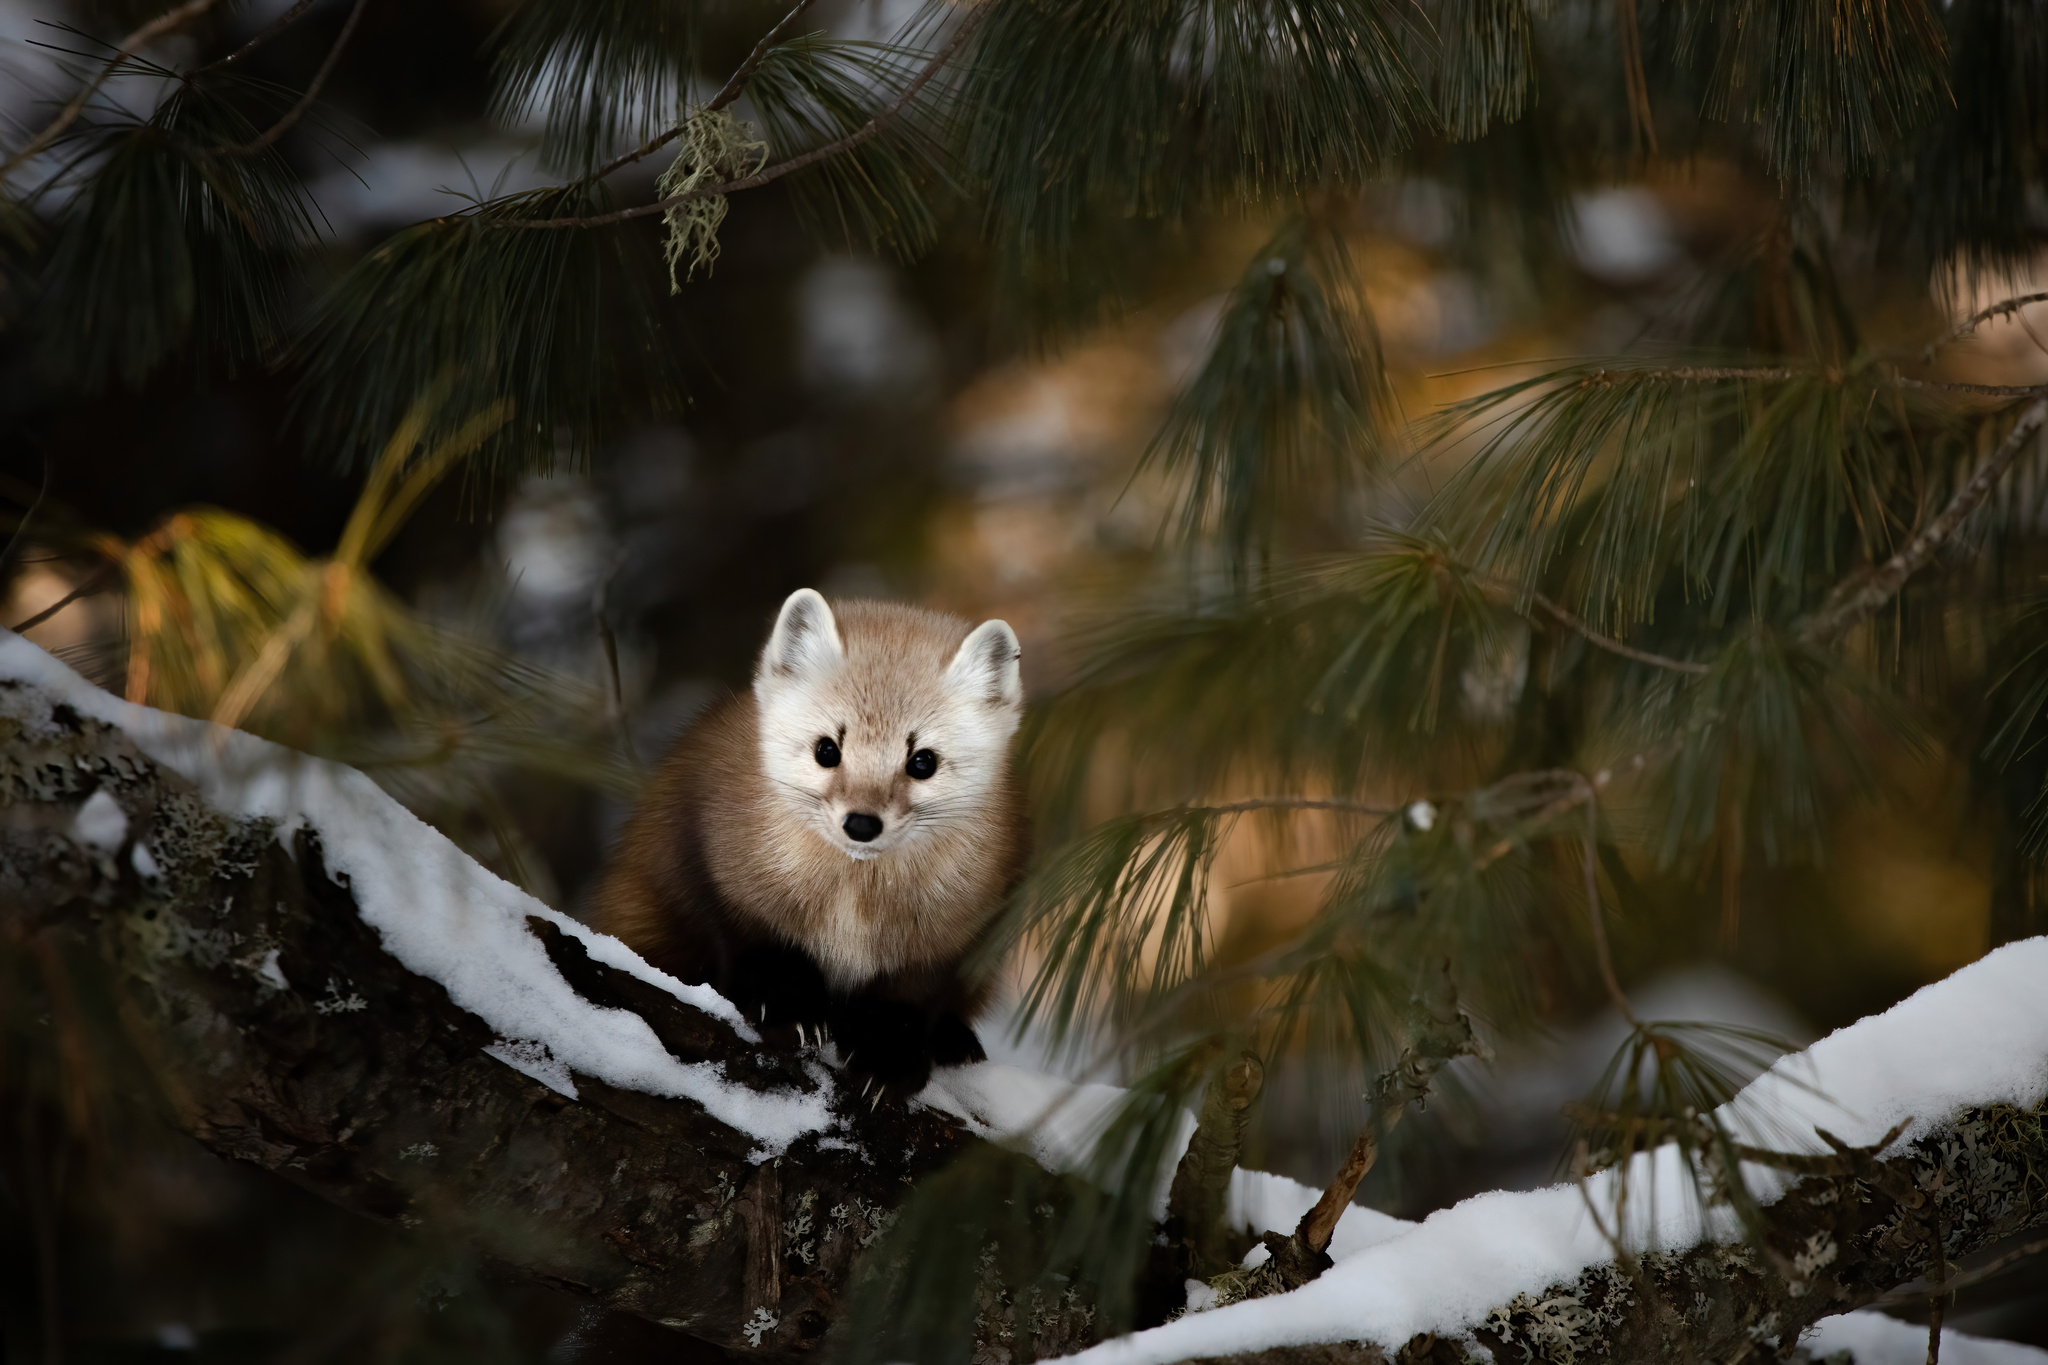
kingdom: Animalia
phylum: Chordata
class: Mammalia
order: Carnivora
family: Mustelidae
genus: Martes
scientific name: Martes americana
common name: American marten
